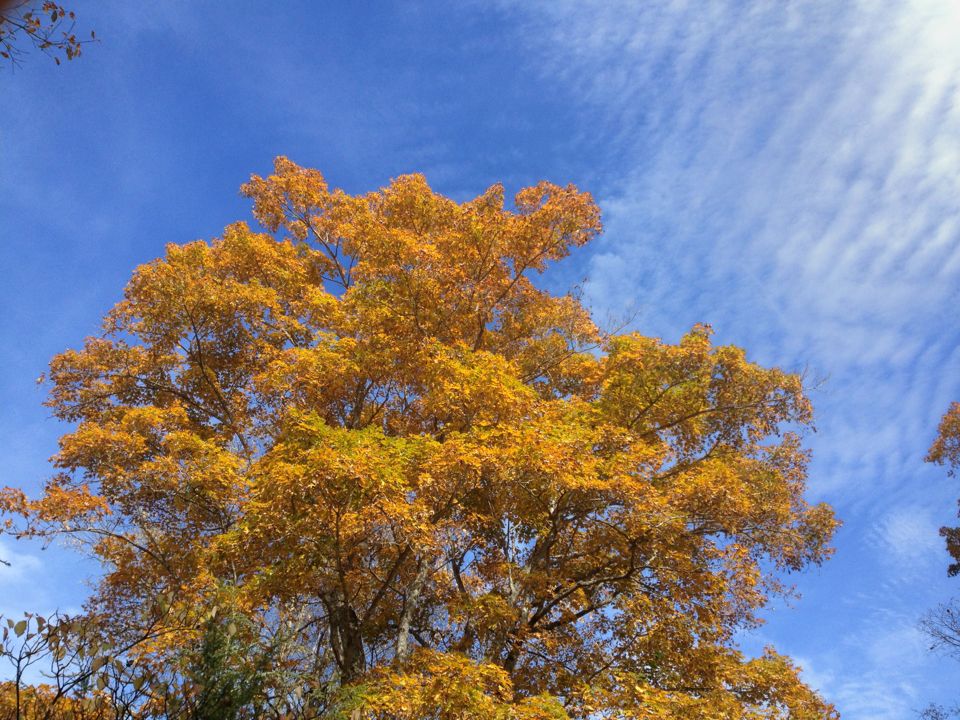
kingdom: Plantae
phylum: Tracheophyta
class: Magnoliopsida
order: Sapindales
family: Sapindaceae
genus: Acer
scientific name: Acer saccharum
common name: Sugar maple
